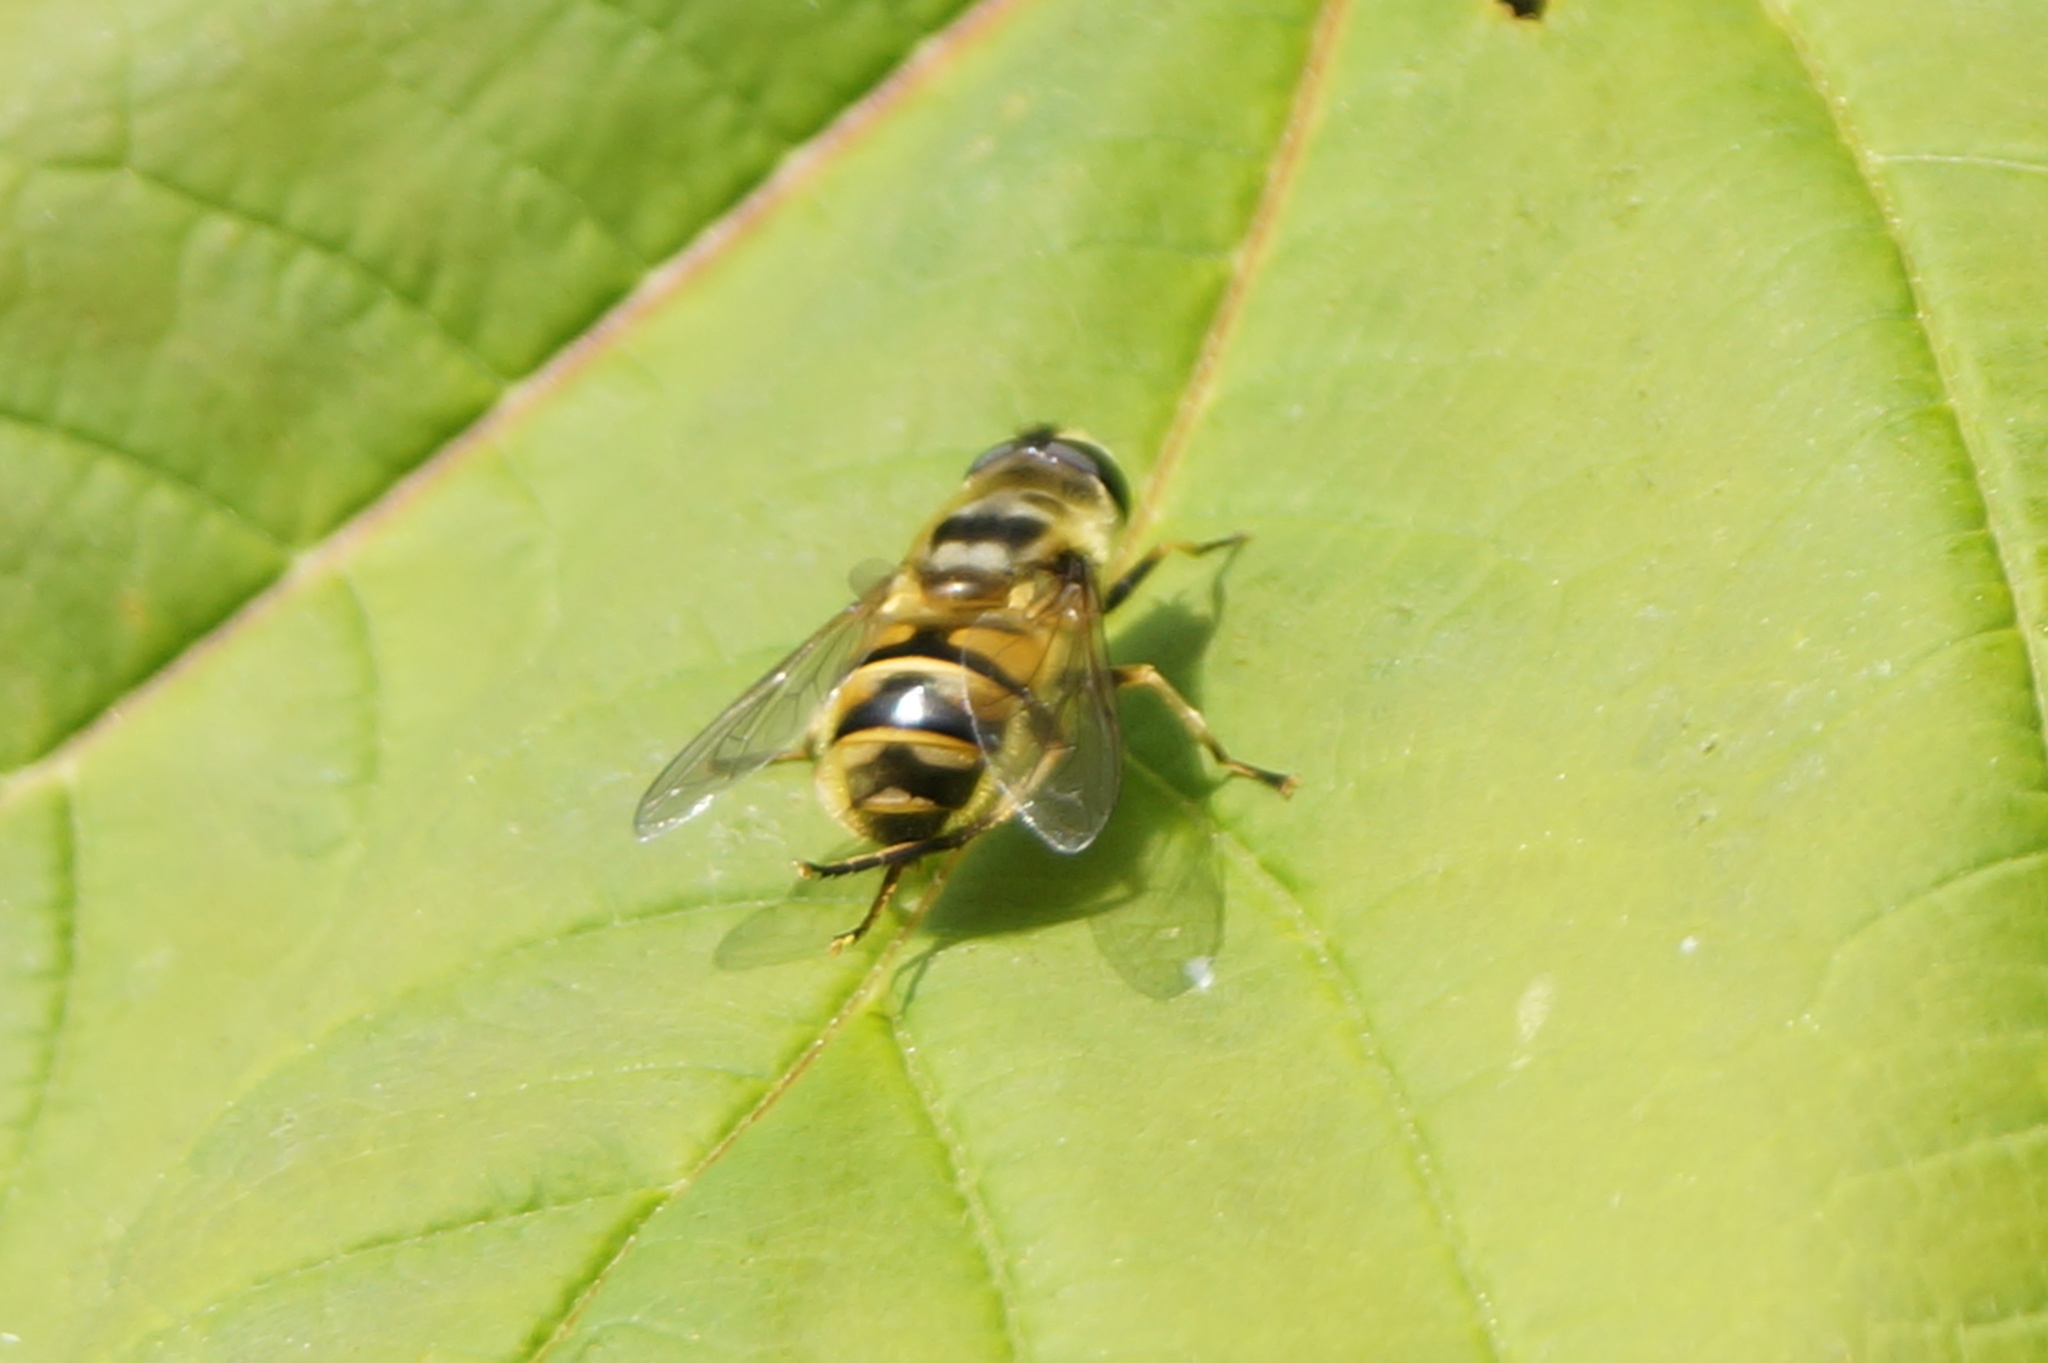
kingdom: Animalia
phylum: Arthropoda
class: Insecta
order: Diptera
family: Syrphidae
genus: Myathropa
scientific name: Myathropa florea
